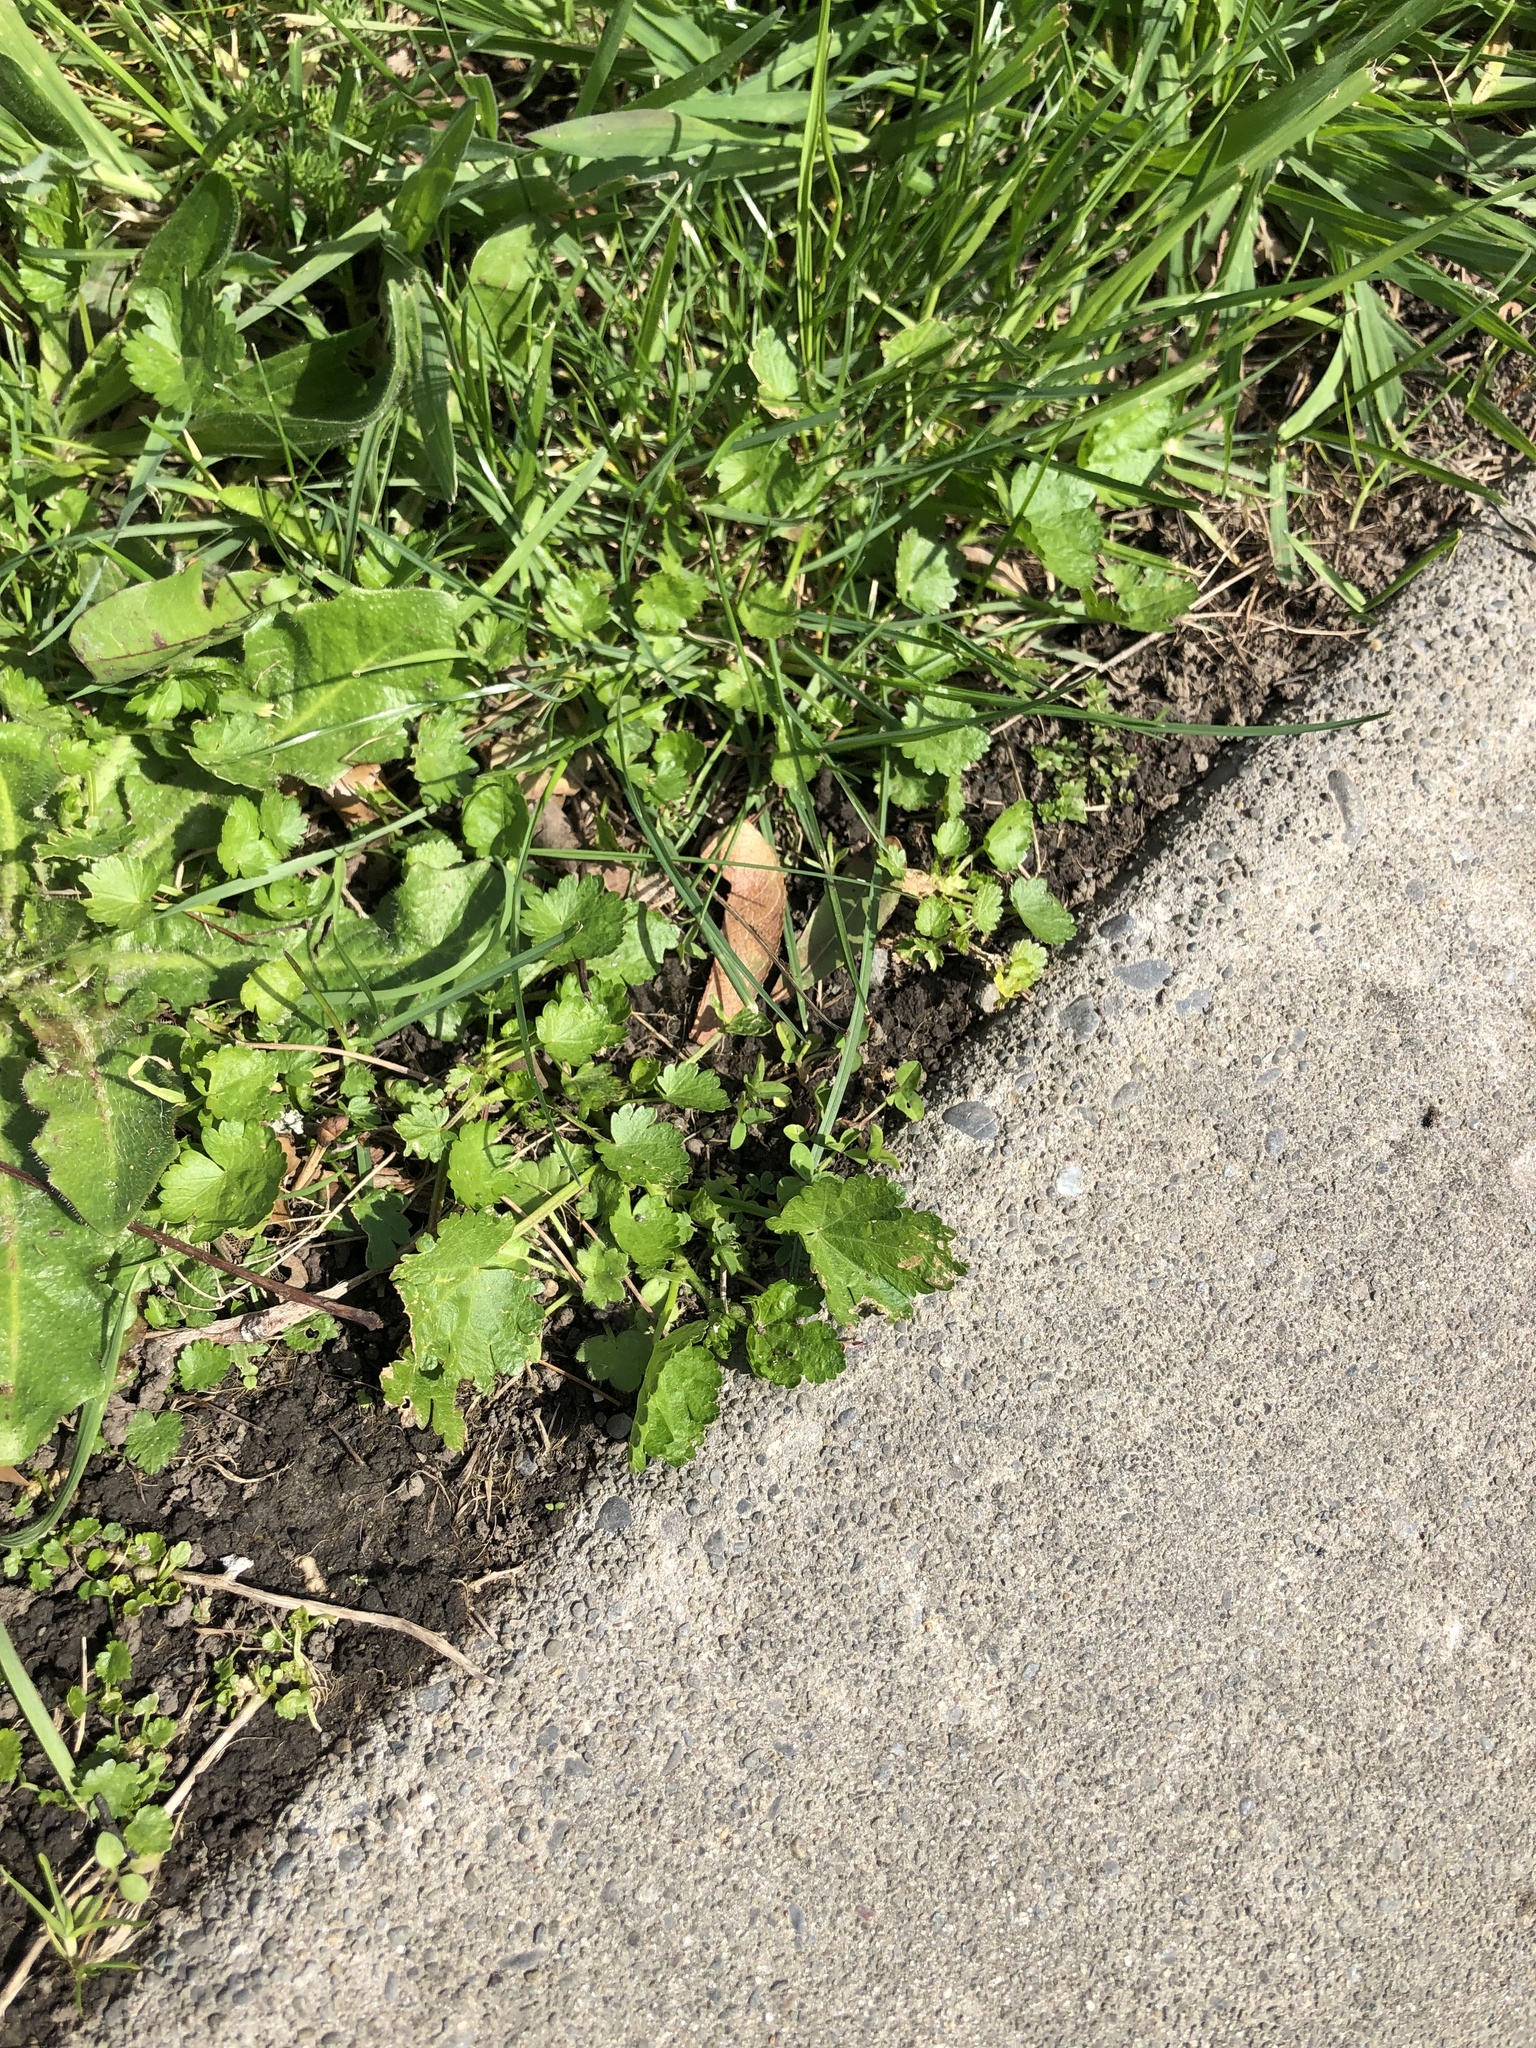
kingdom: Plantae
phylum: Tracheophyta
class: Magnoliopsida
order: Malvales
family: Malvaceae
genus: Modiola
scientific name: Modiola caroliniana
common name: Carolina bristlemallow
